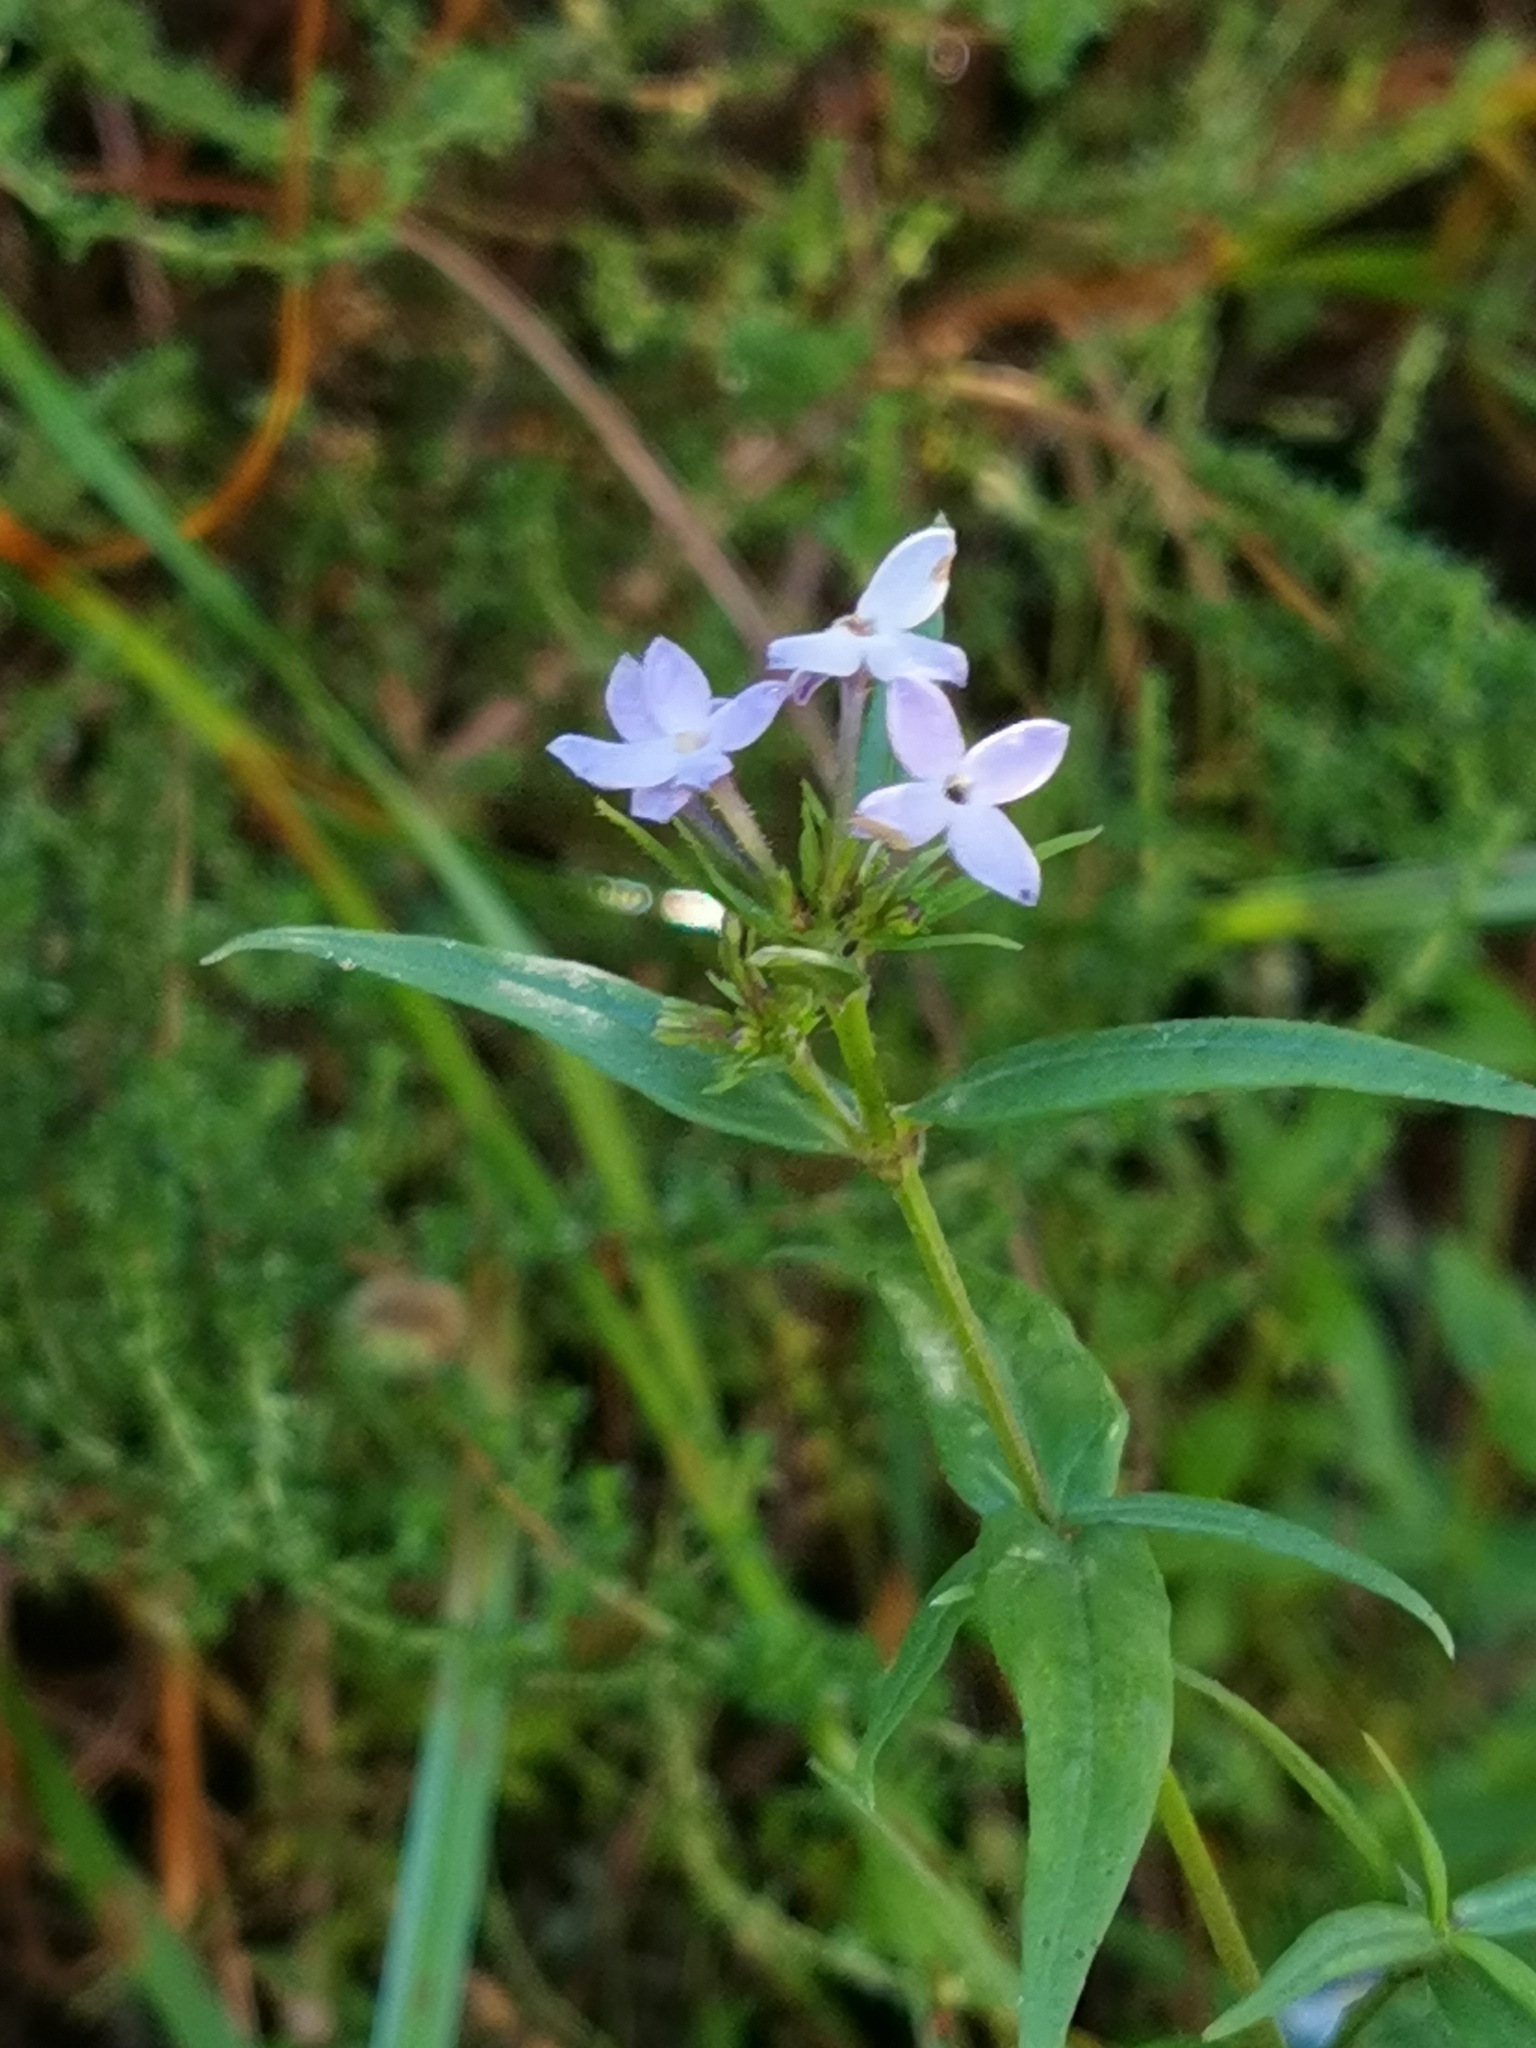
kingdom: Plantae
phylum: Tracheophyta
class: Magnoliopsida
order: Gentianales
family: Rubiaceae
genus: Conostomium
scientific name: Conostomium natalense
